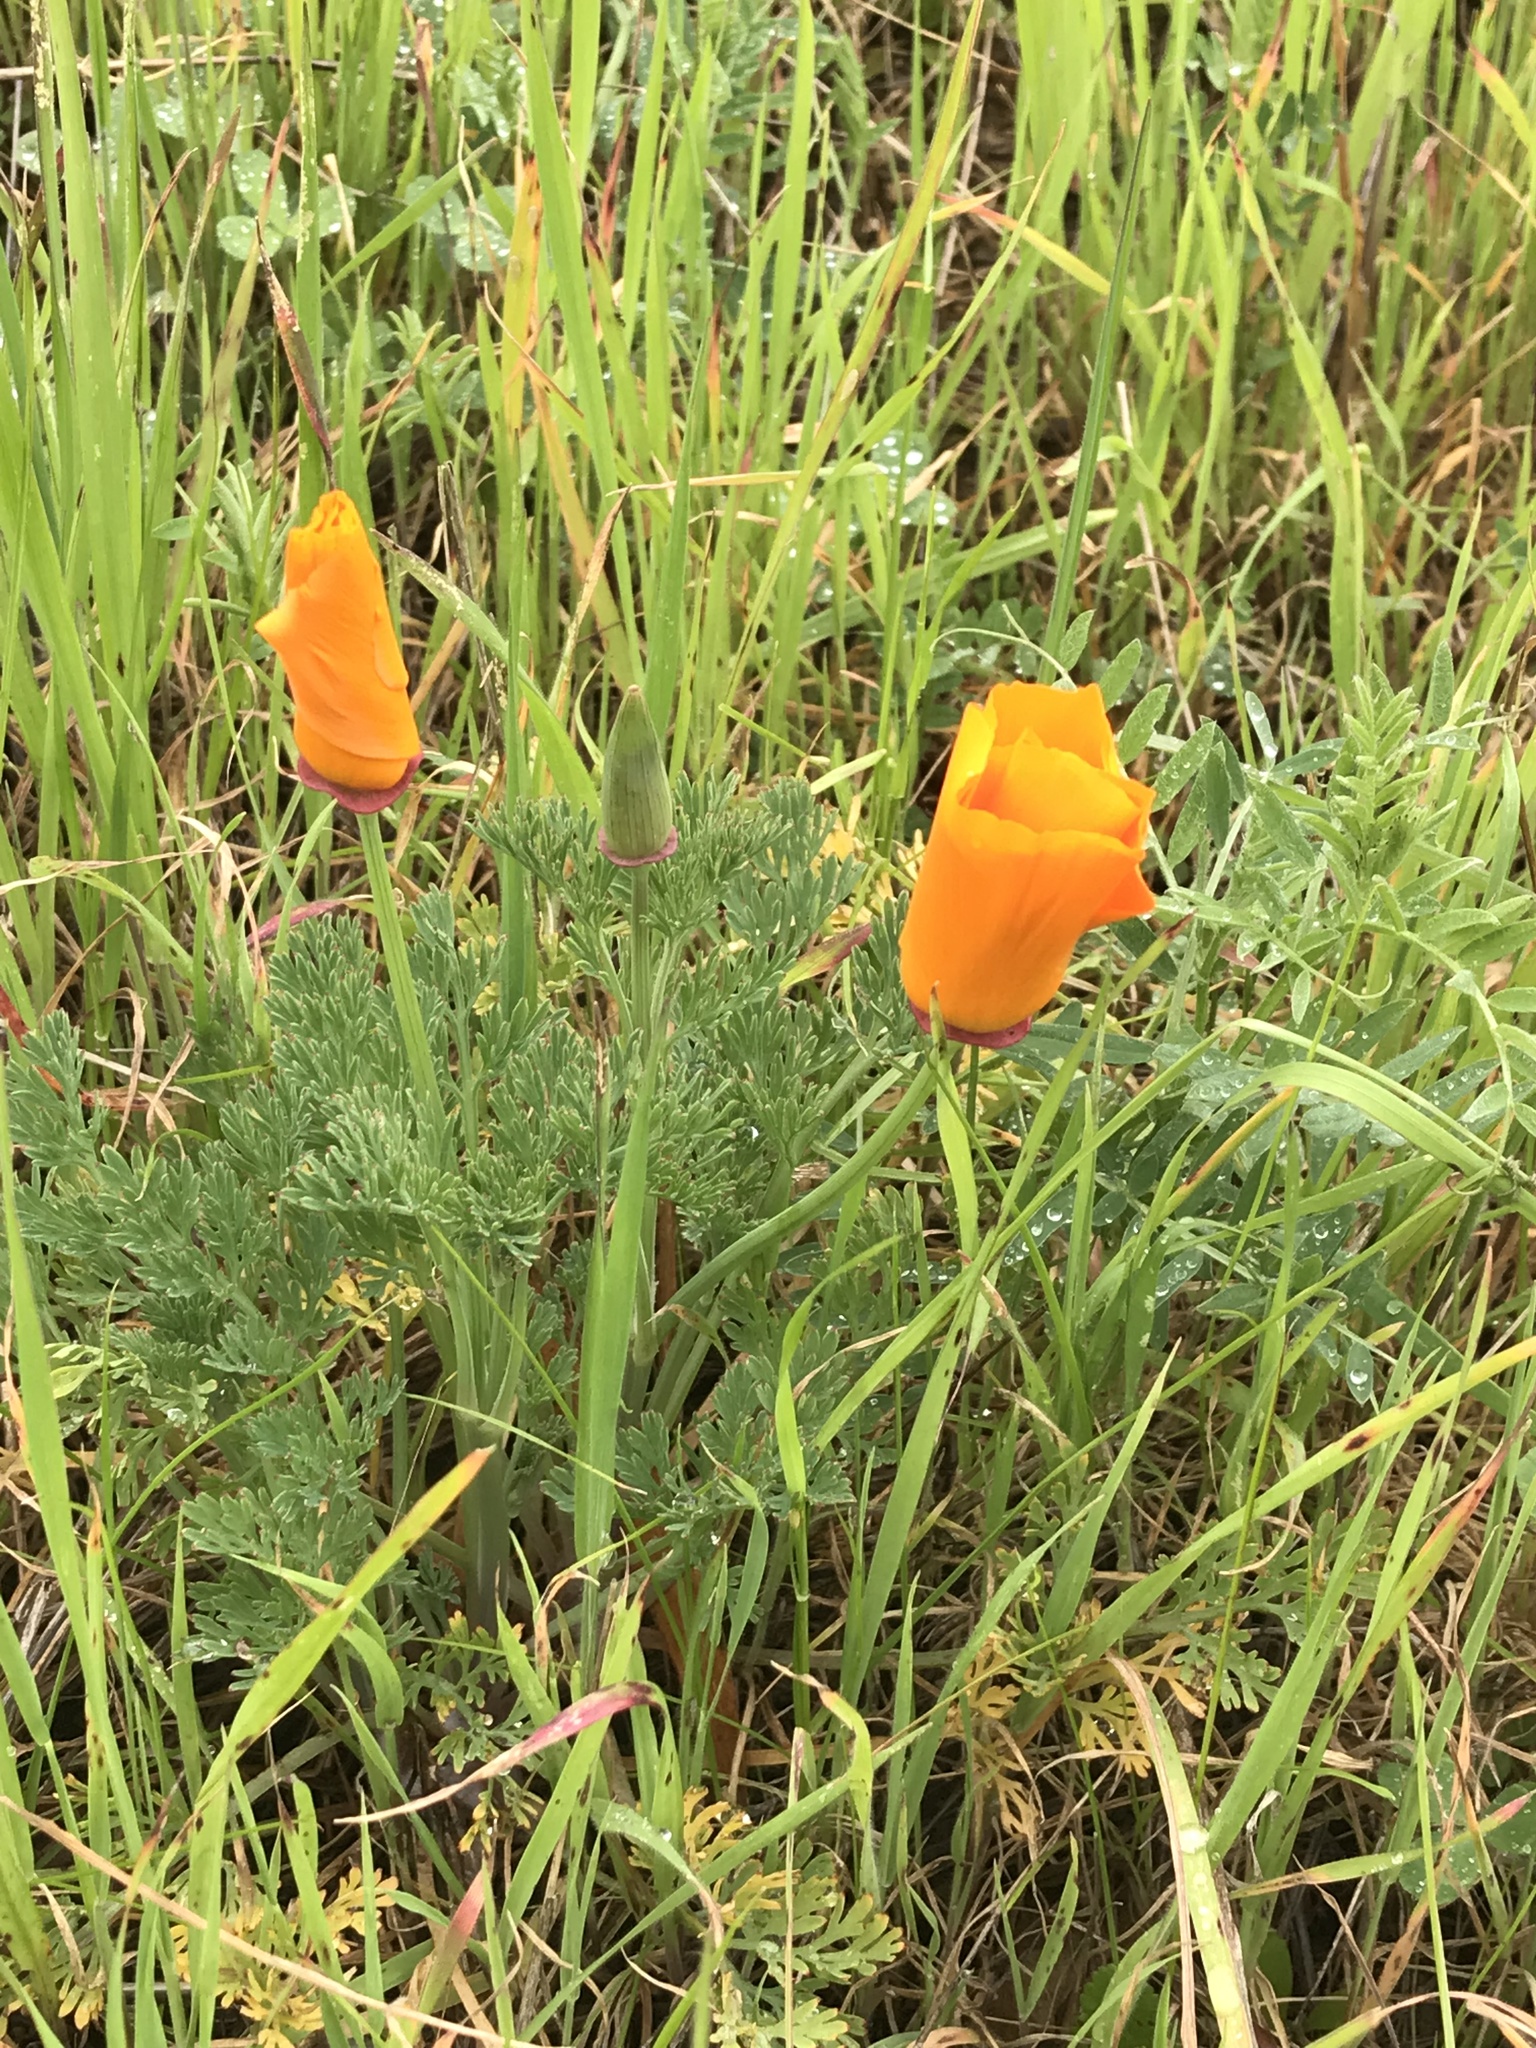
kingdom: Plantae
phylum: Tracheophyta
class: Magnoliopsida
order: Ranunculales
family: Papaveraceae
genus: Eschscholzia
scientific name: Eschscholzia californica
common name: California poppy
